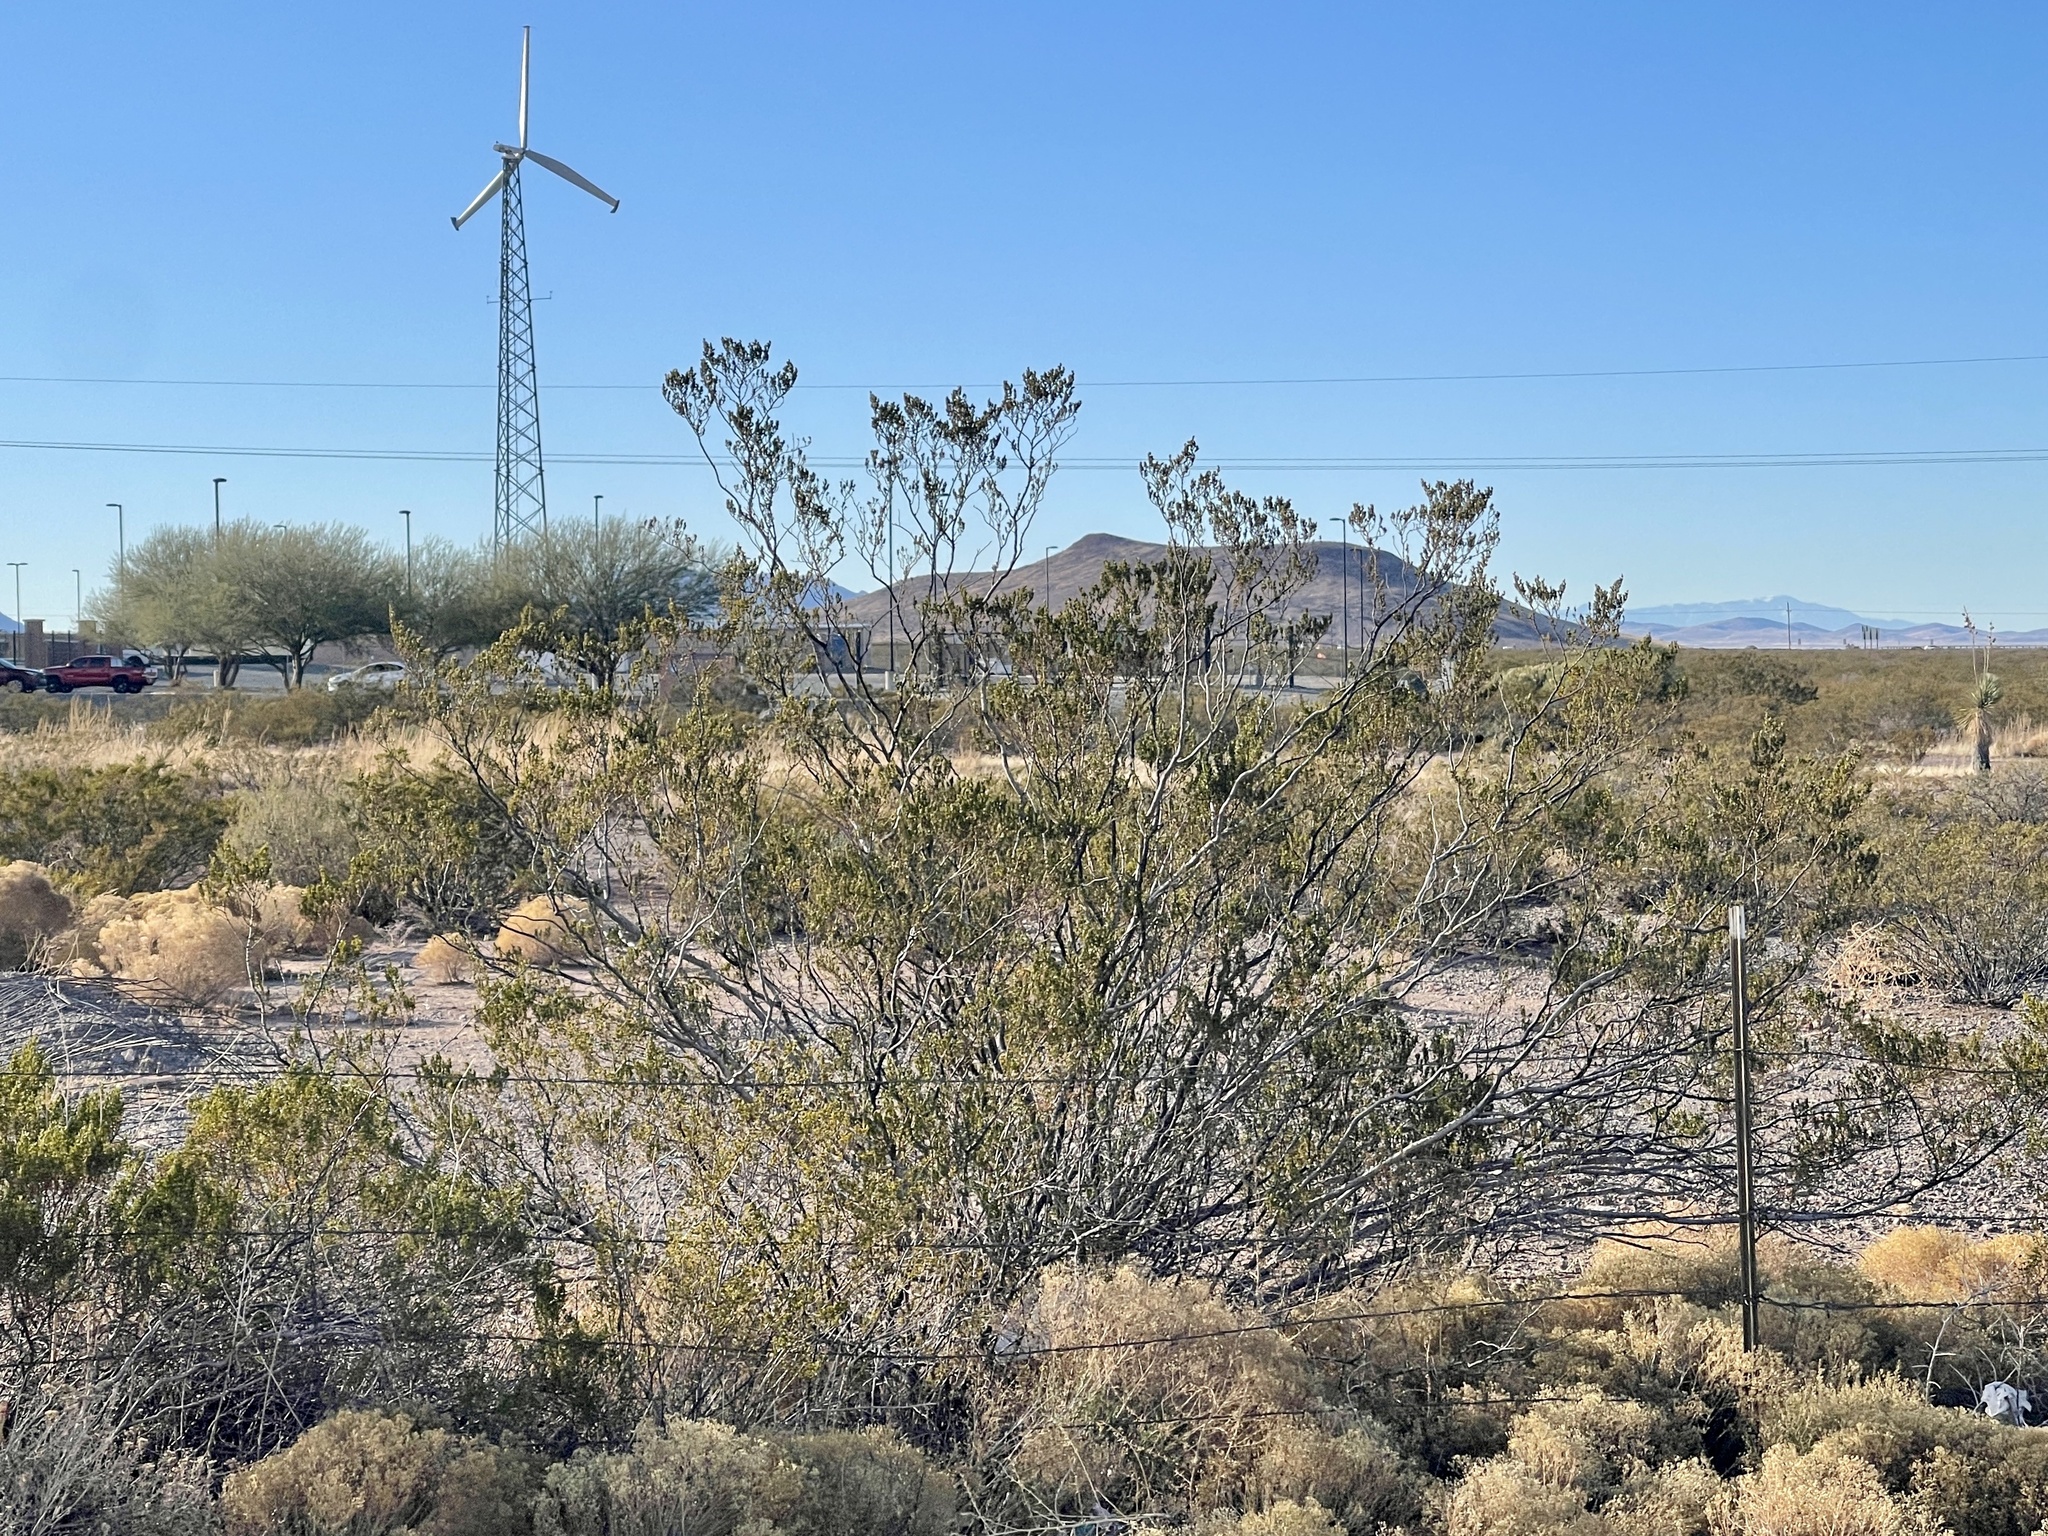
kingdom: Plantae
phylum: Tracheophyta
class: Magnoliopsida
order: Zygophyllales
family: Zygophyllaceae
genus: Larrea
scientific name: Larrea tridentata
